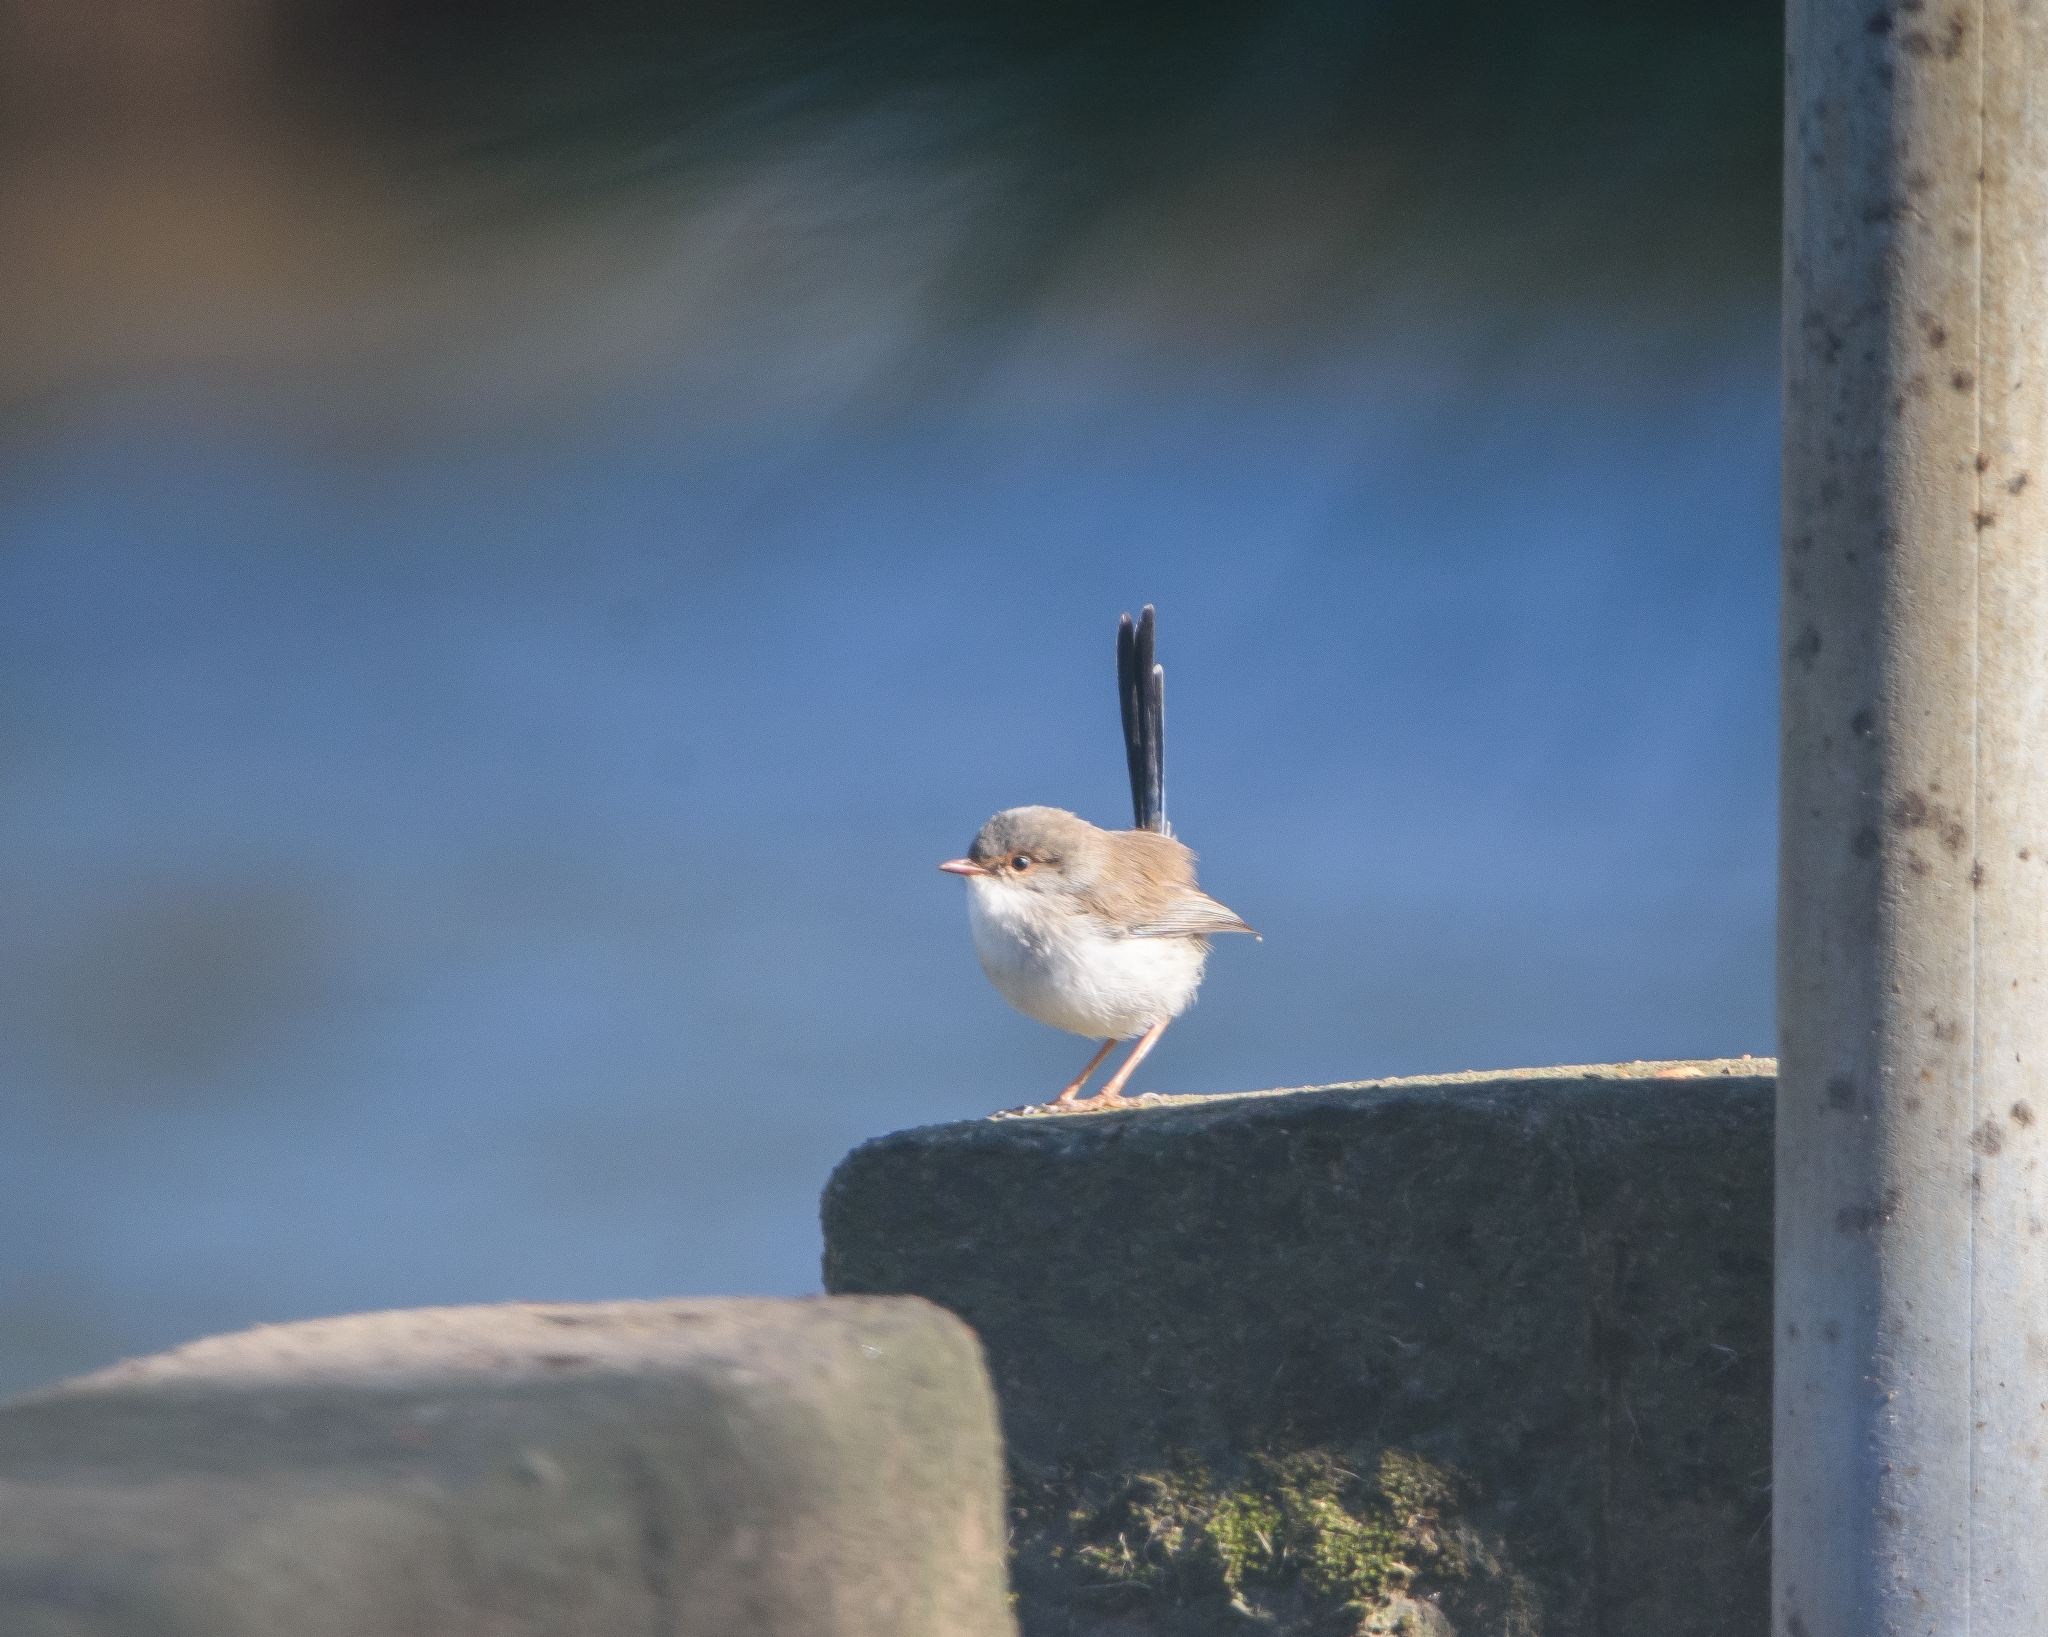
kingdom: Animalia
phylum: Chordata
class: Aves
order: Passeriformes
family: Maluridae
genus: Malurus
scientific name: Malurus cyaneus
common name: Superb fairywren
